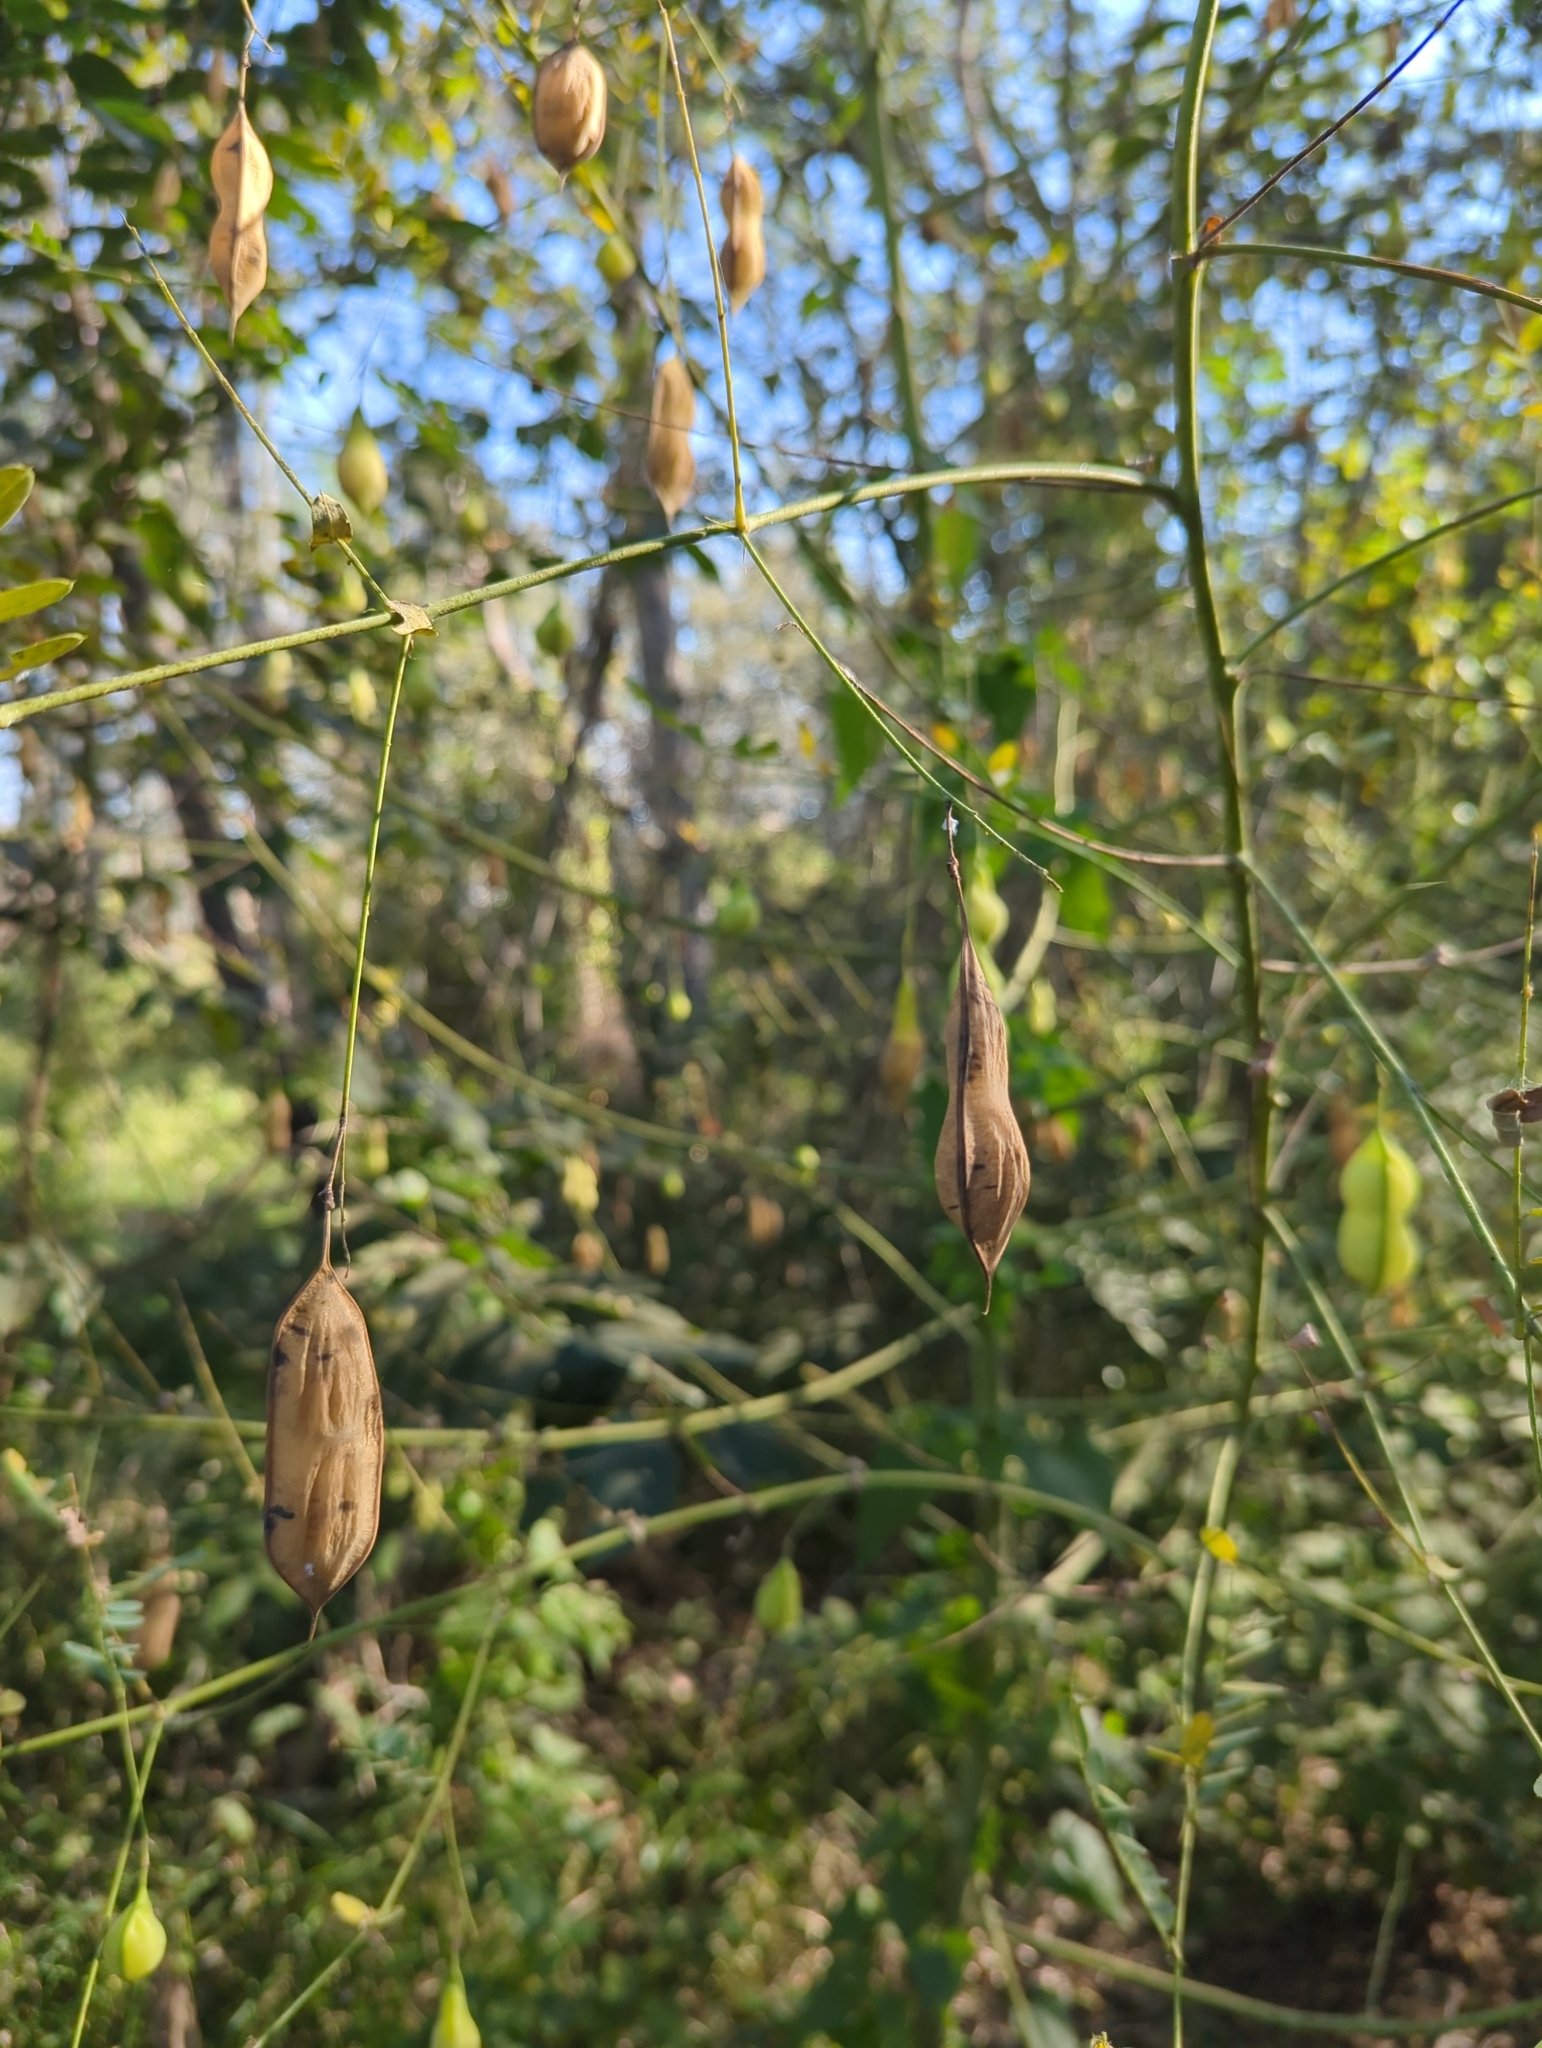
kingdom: Plantae
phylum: Tracheophyta
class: Magnoliopsida
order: Fabales
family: Fabaceae
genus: Sesbania
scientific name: Sesbania vesicaria
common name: Bagpod
